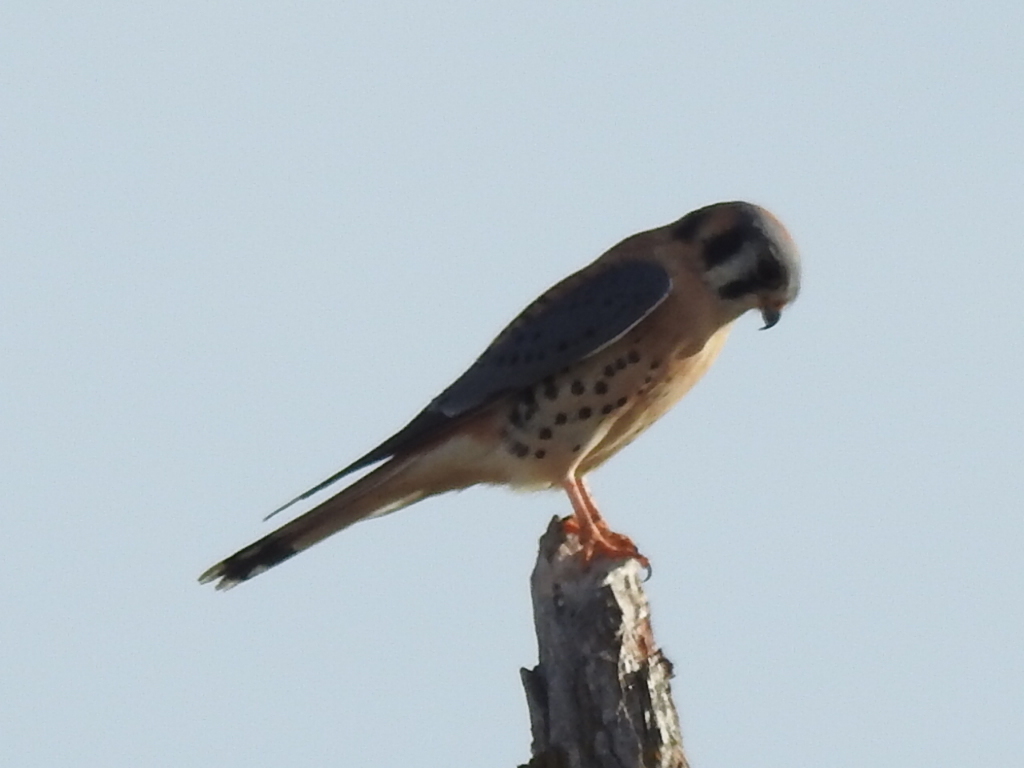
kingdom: Animalia
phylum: Chordata
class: Aves
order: Falconiformes
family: Falconidae
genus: Falco
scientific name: Falco sparverius
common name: American kestrel
